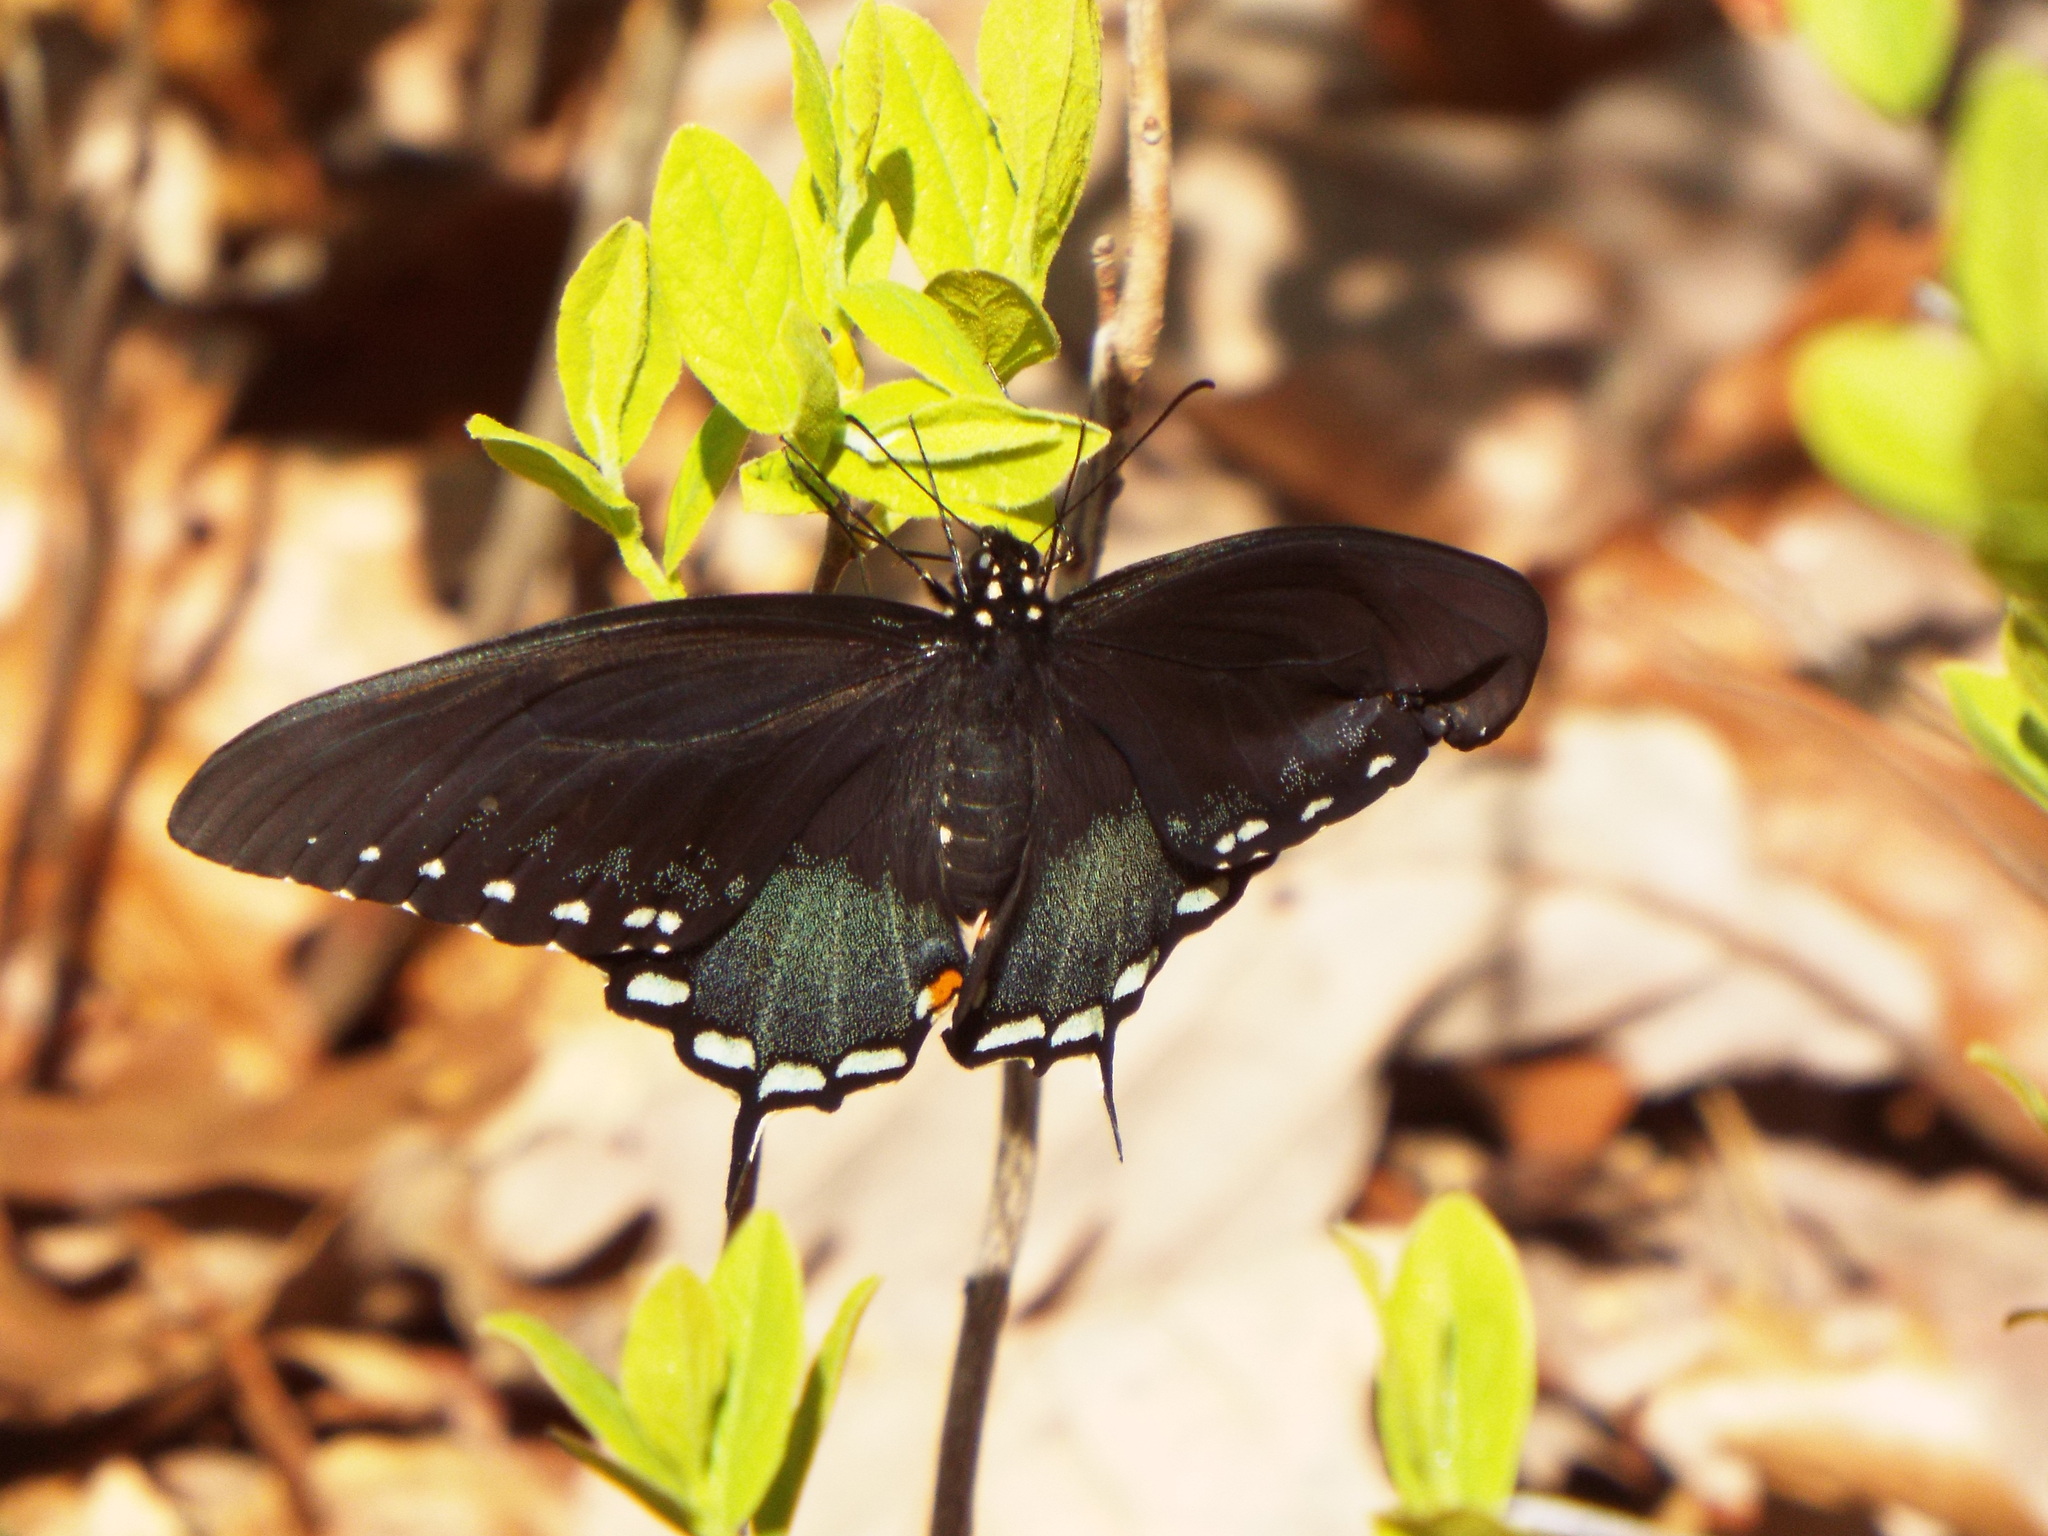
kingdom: Animalia
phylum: Arthropoda
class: Insecta
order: Lepidoptera
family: Papilionidae
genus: Papilio
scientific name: Papilio troilus
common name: Spicebush swallowtail
